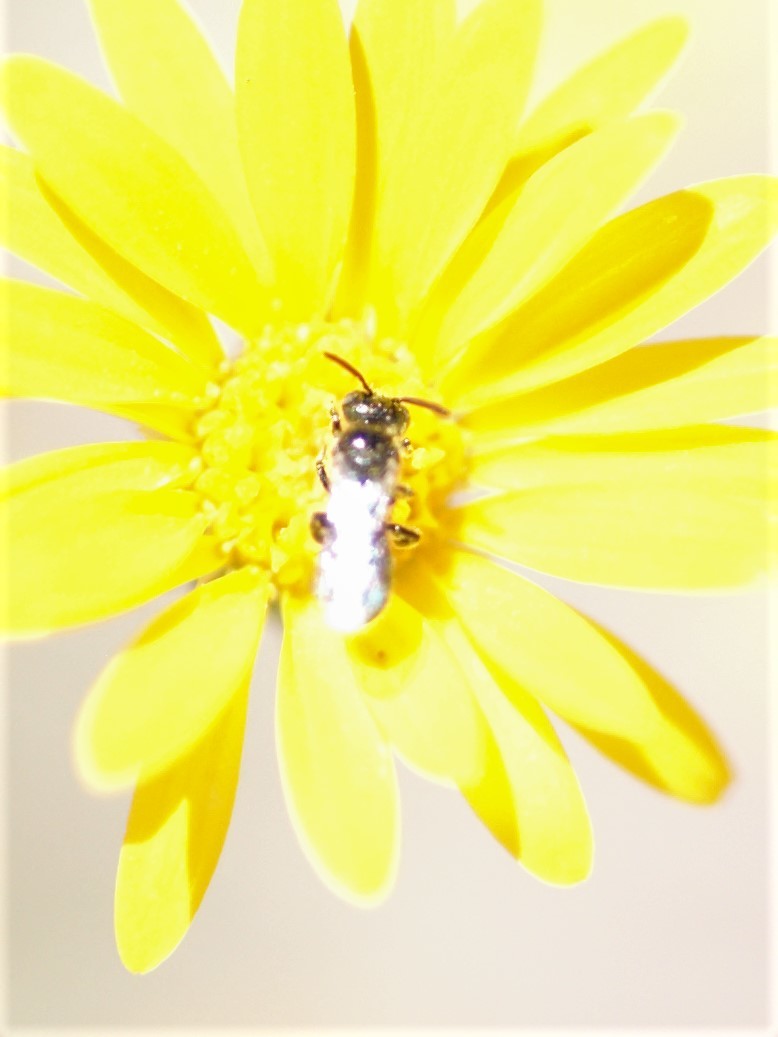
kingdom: Animalia
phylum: Arthropoda
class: Insecta
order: Hymenoptera
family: Apidae
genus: Zadontomerus
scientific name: Zadontomerus
